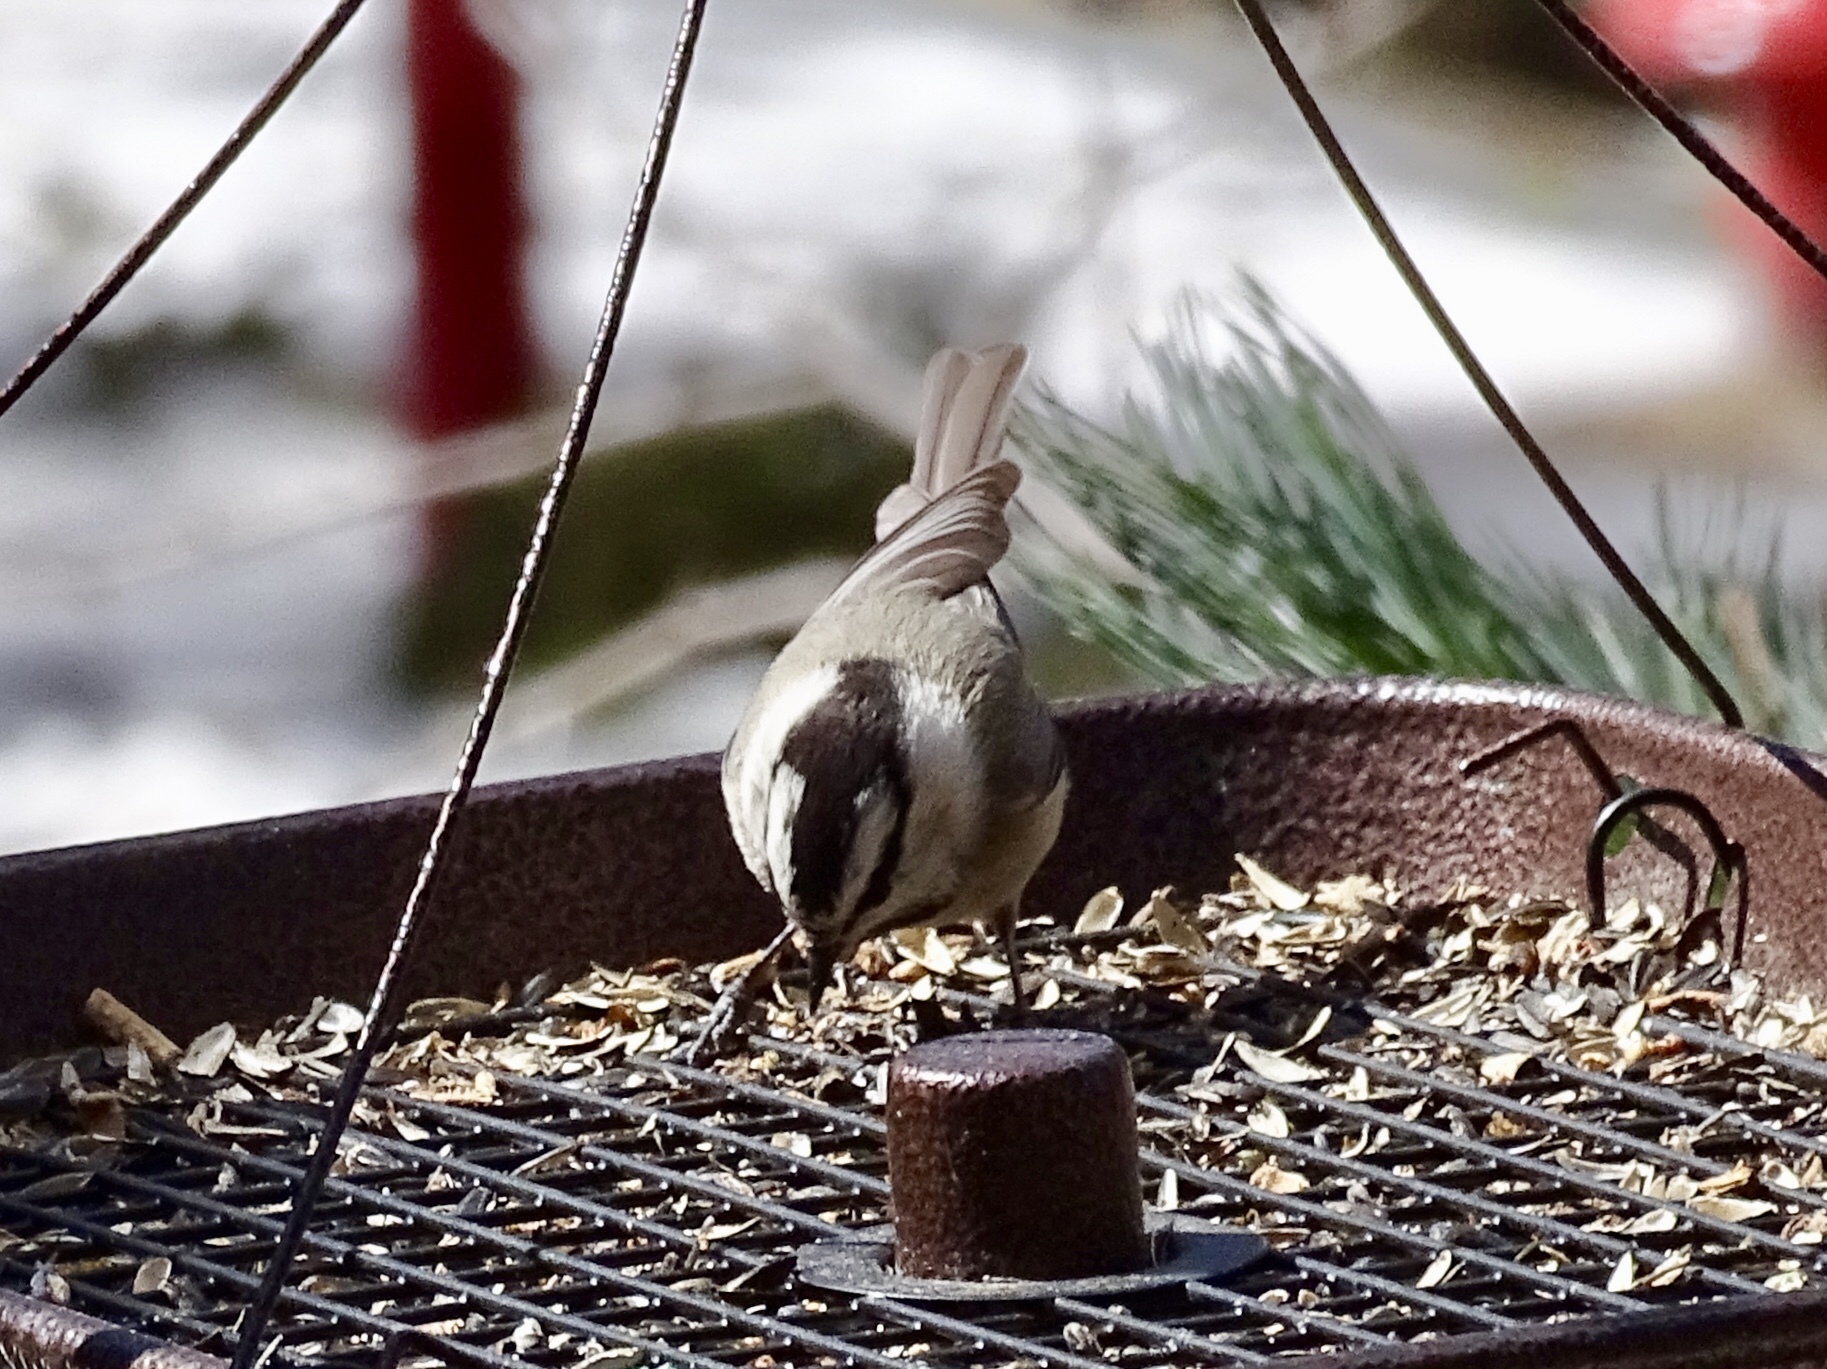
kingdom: Animalia
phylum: Chordata
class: Aves
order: Passeriformes
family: Paridae
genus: Poecile
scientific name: Poecile gambeli
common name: Mountain chickadee
